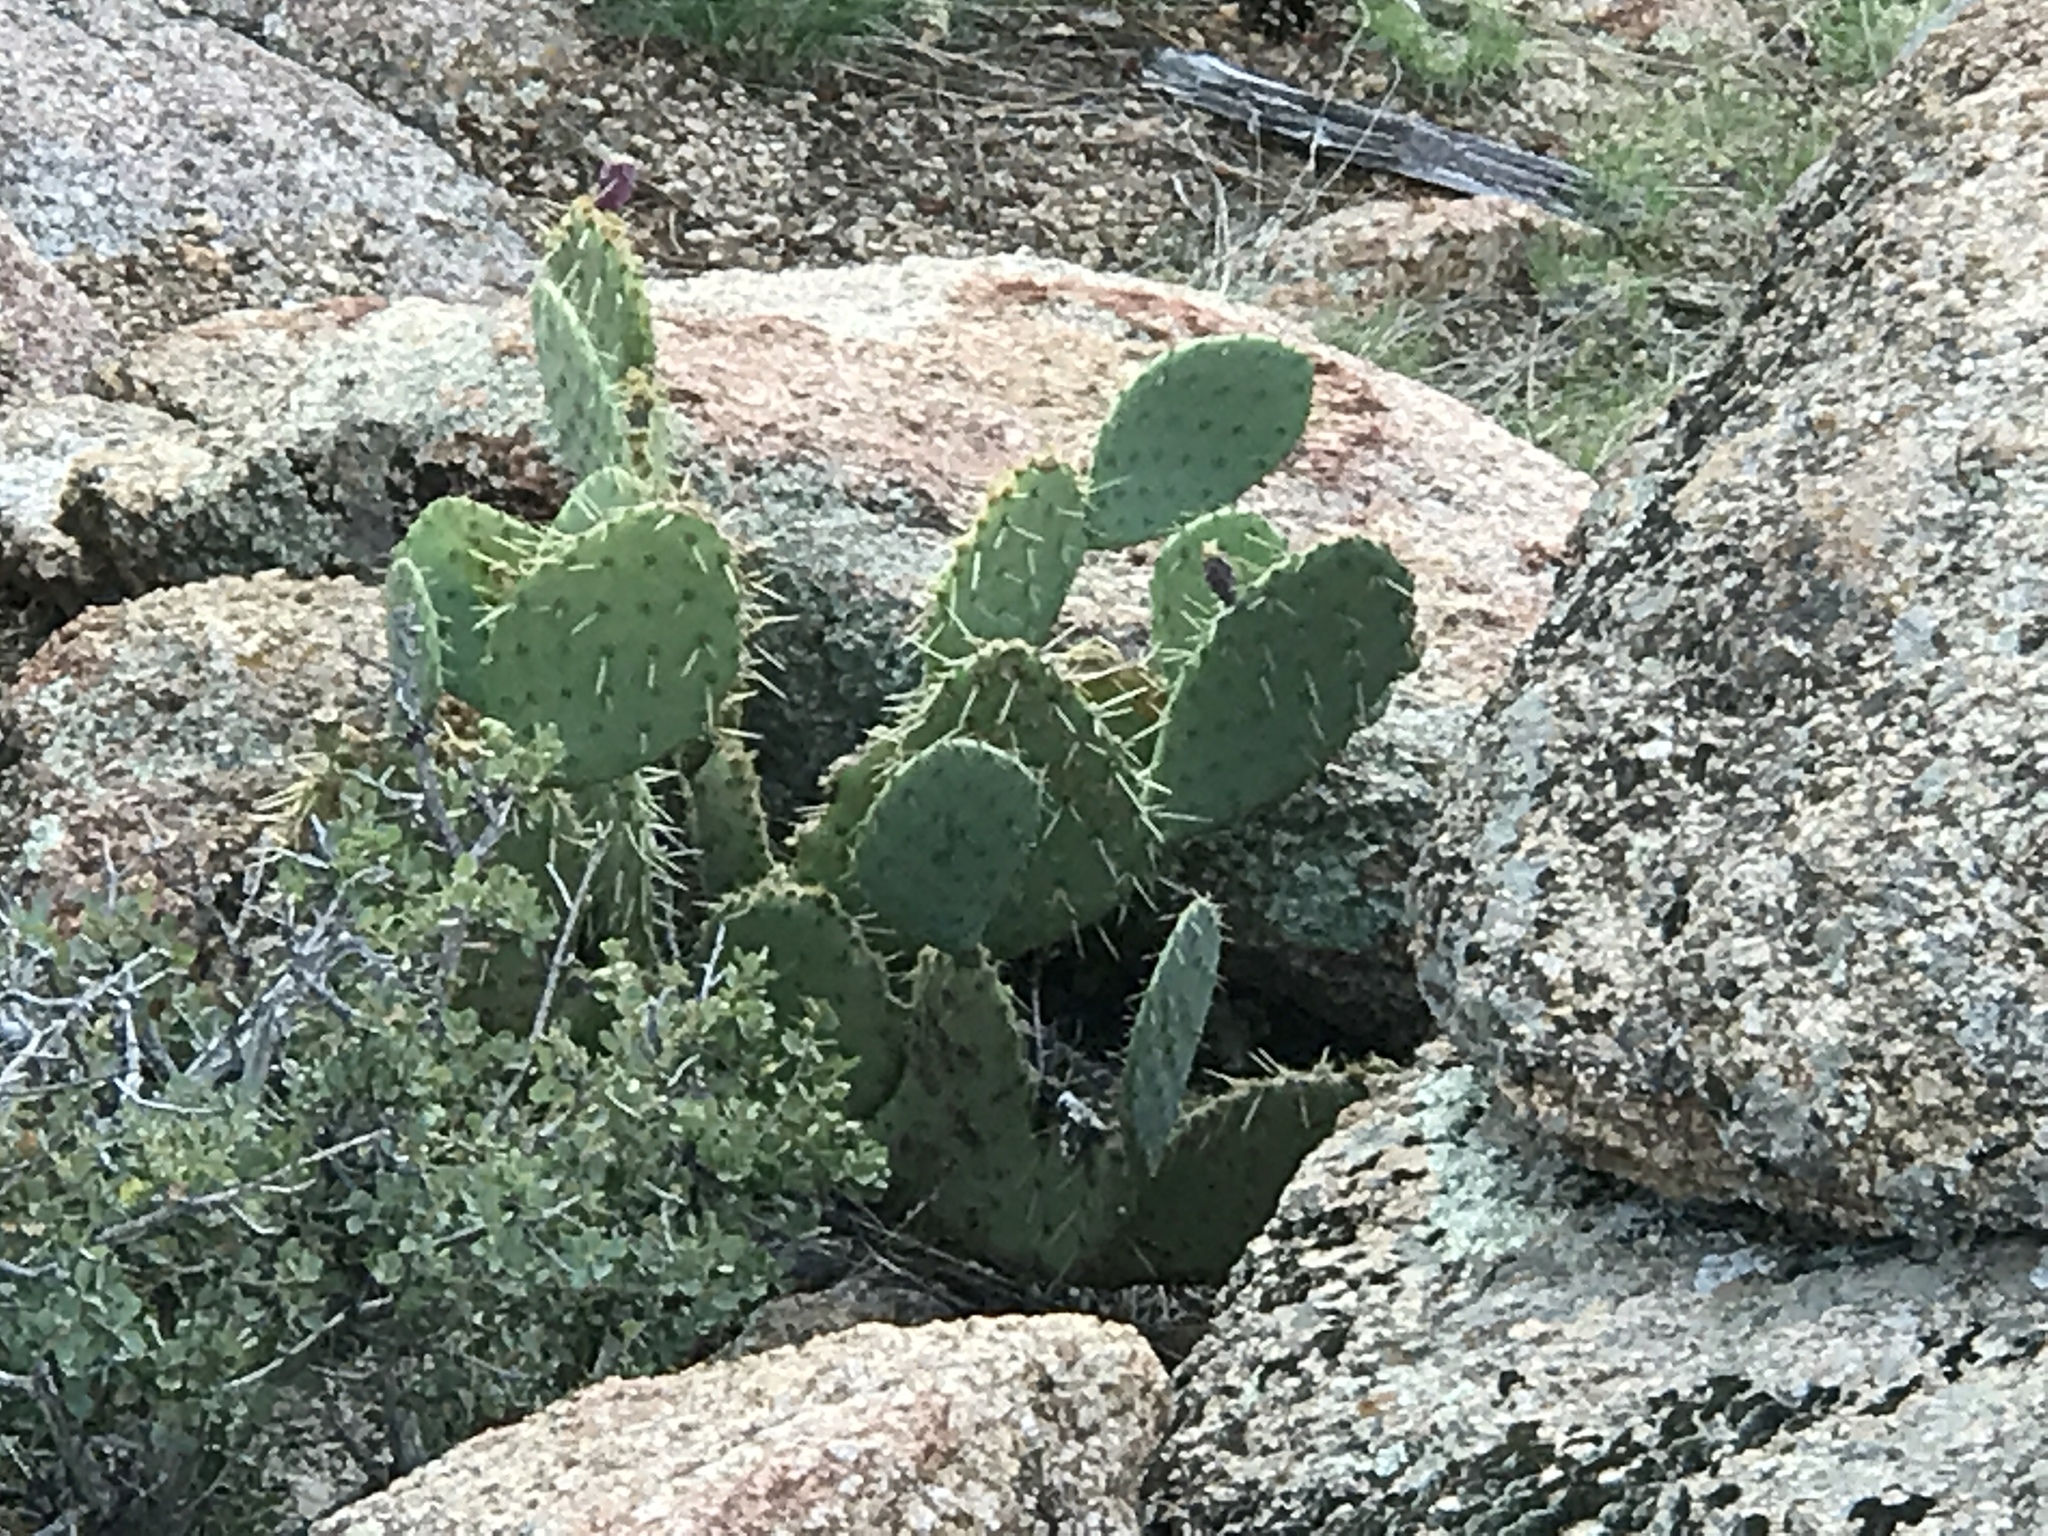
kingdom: Plantae
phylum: Tracheophyta
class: Magnoliopsida
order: Caryophyllales
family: Cactaceae
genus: Opuntia
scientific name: Opuntia phaeacantha
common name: New mexico prickly-pear
